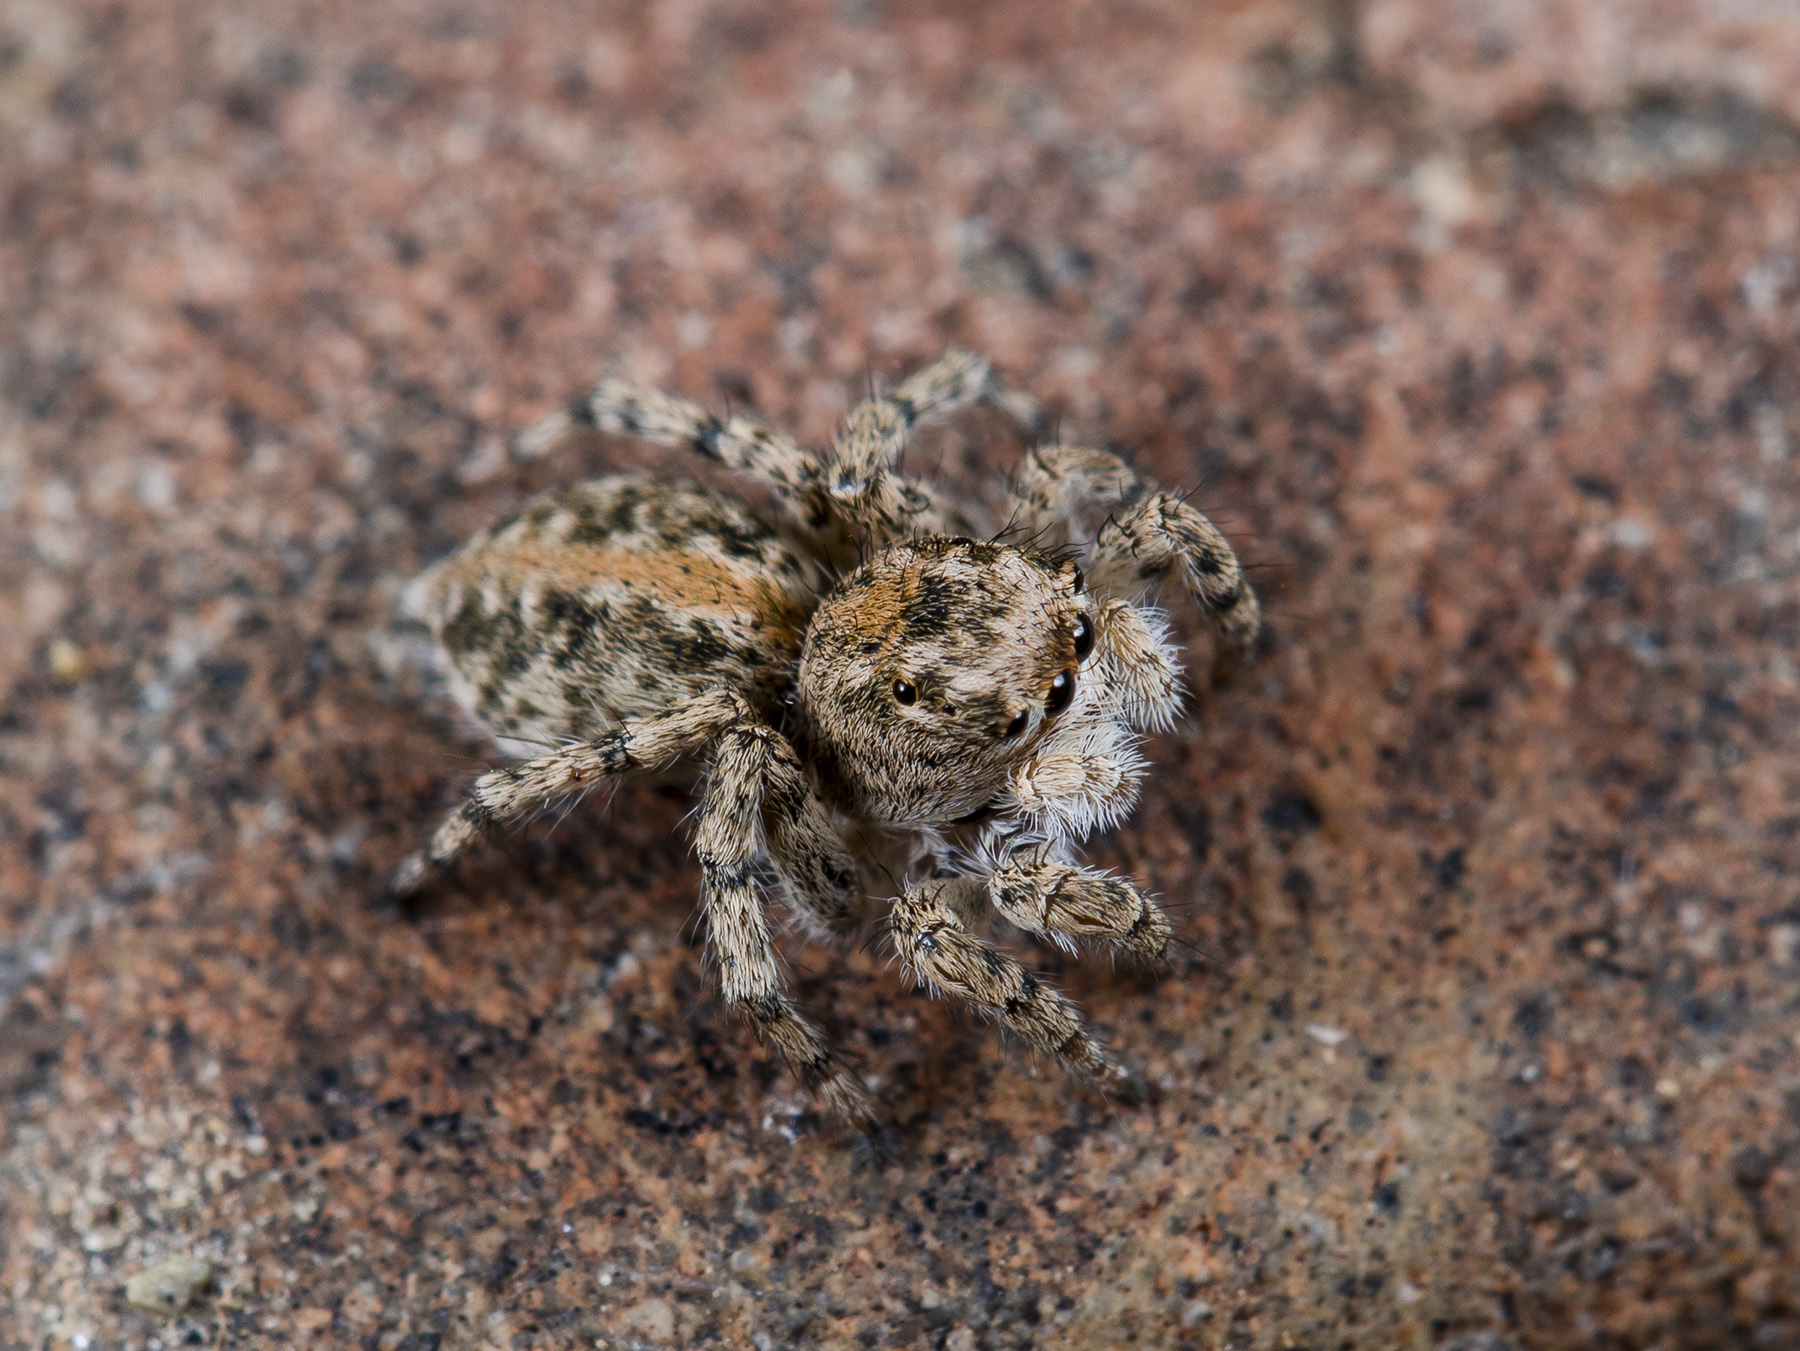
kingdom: Animalia
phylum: Arthropoda
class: Arachnida
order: Araneae
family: Salticidae
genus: Aelurillus
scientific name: Aelurillus dubatolovi
